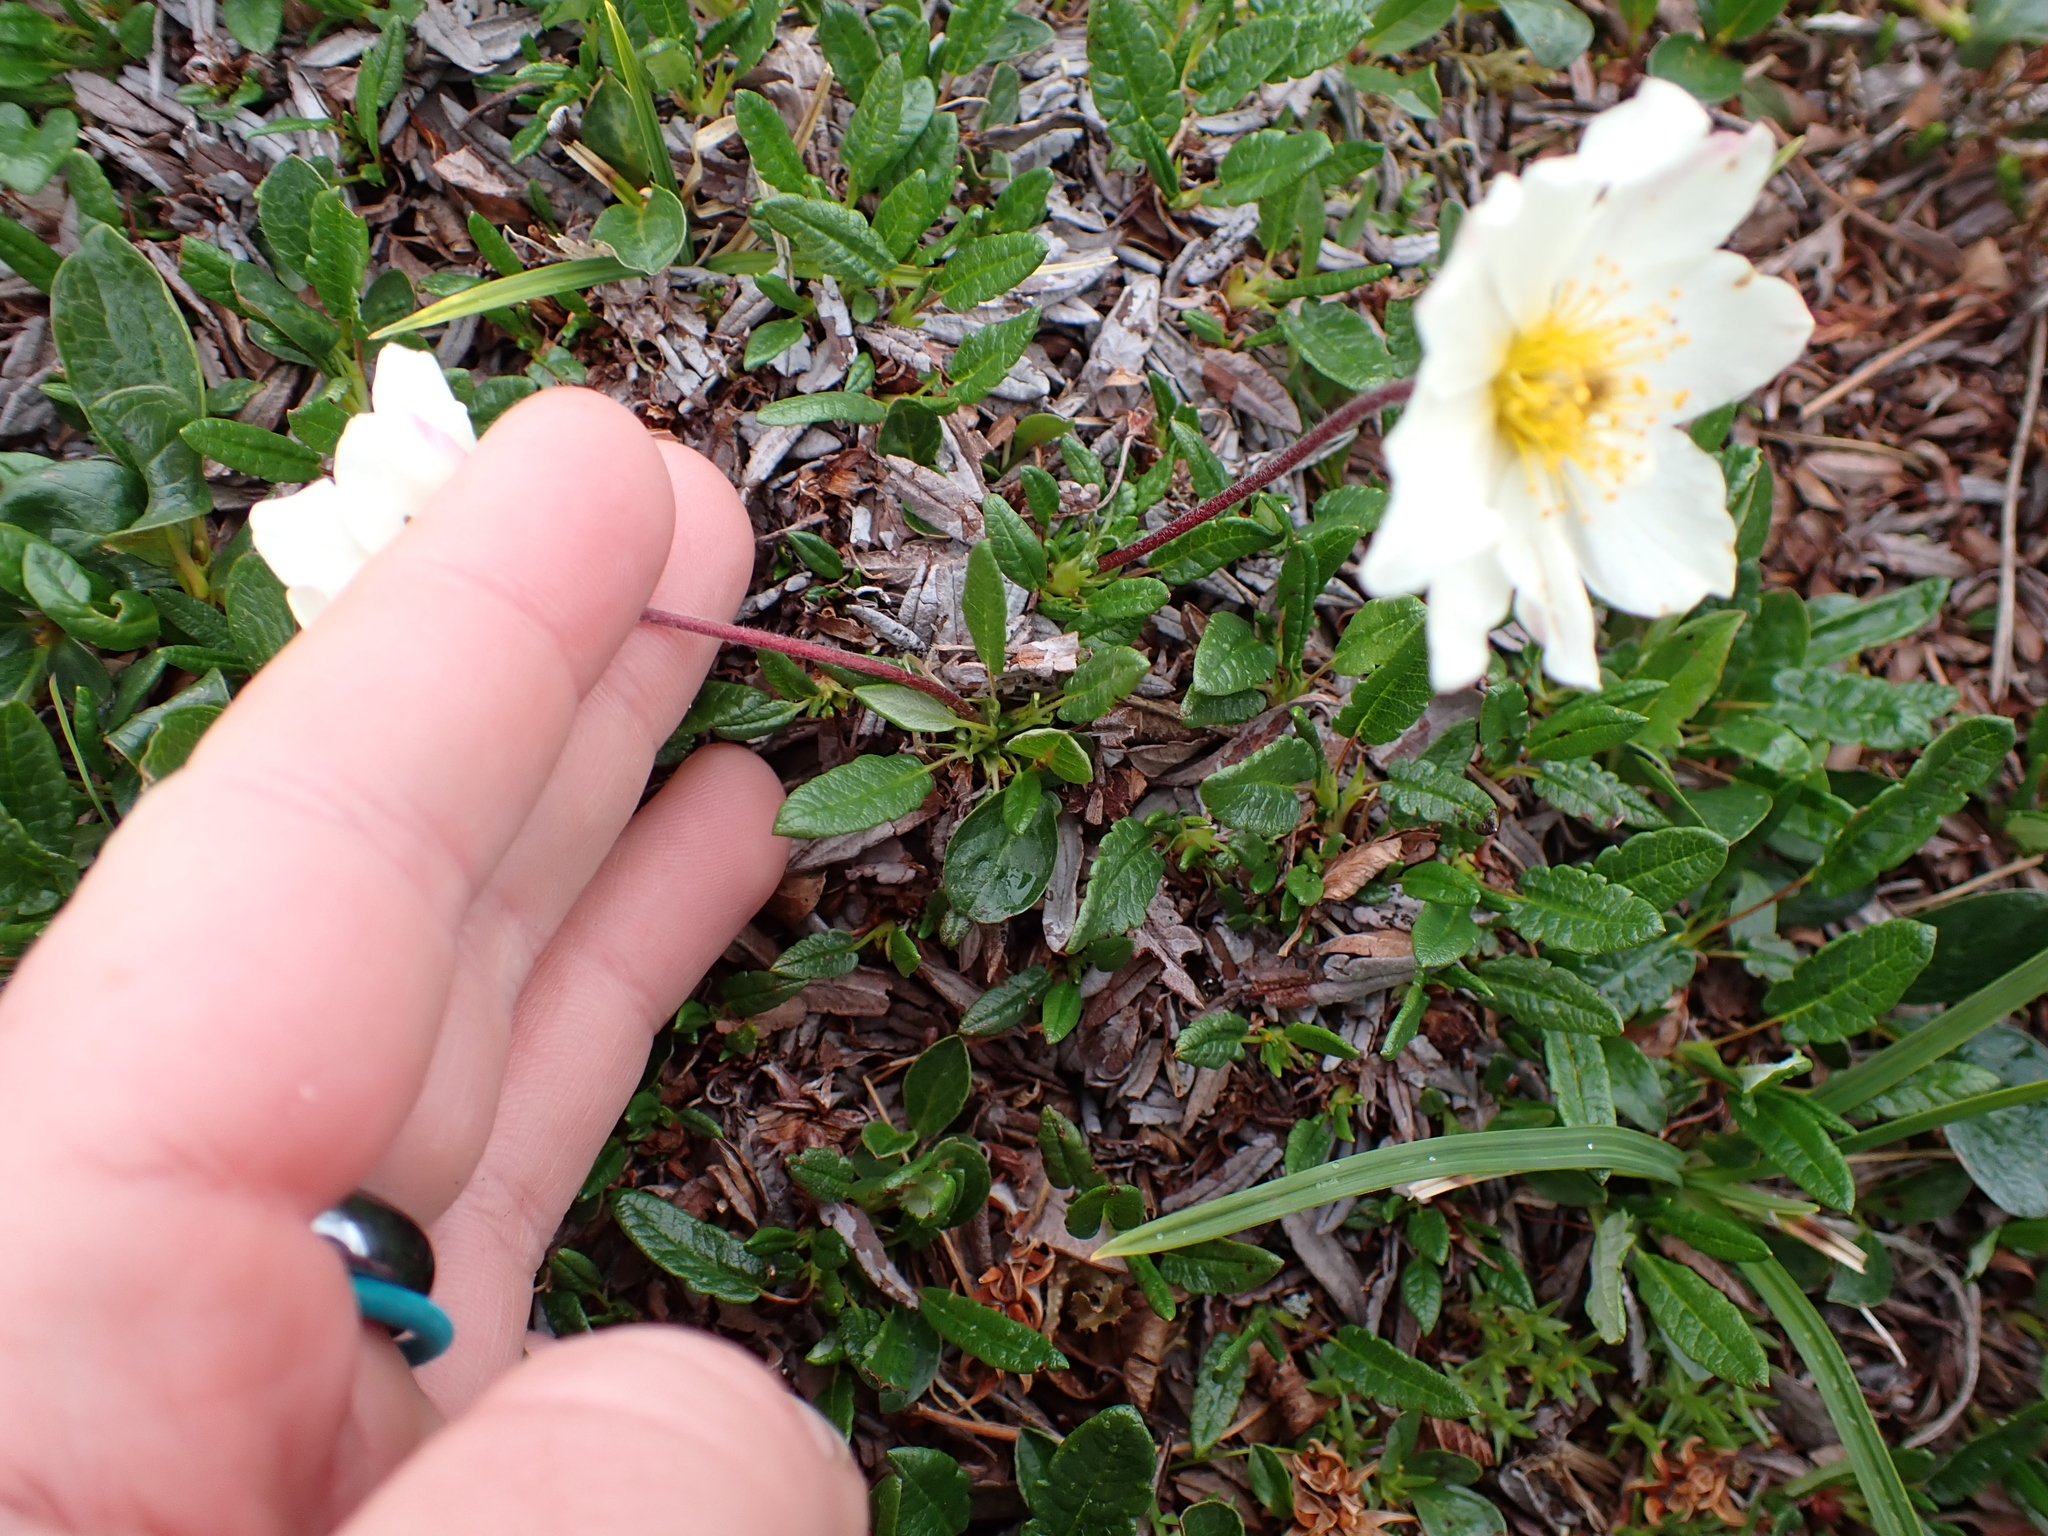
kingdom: Plantae
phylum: Tracheophyta
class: Magnoliopsida
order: Rosales
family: Rosaceae
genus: Dryas
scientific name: Dryas integrifolia
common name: Entire-leaved mountain avens
